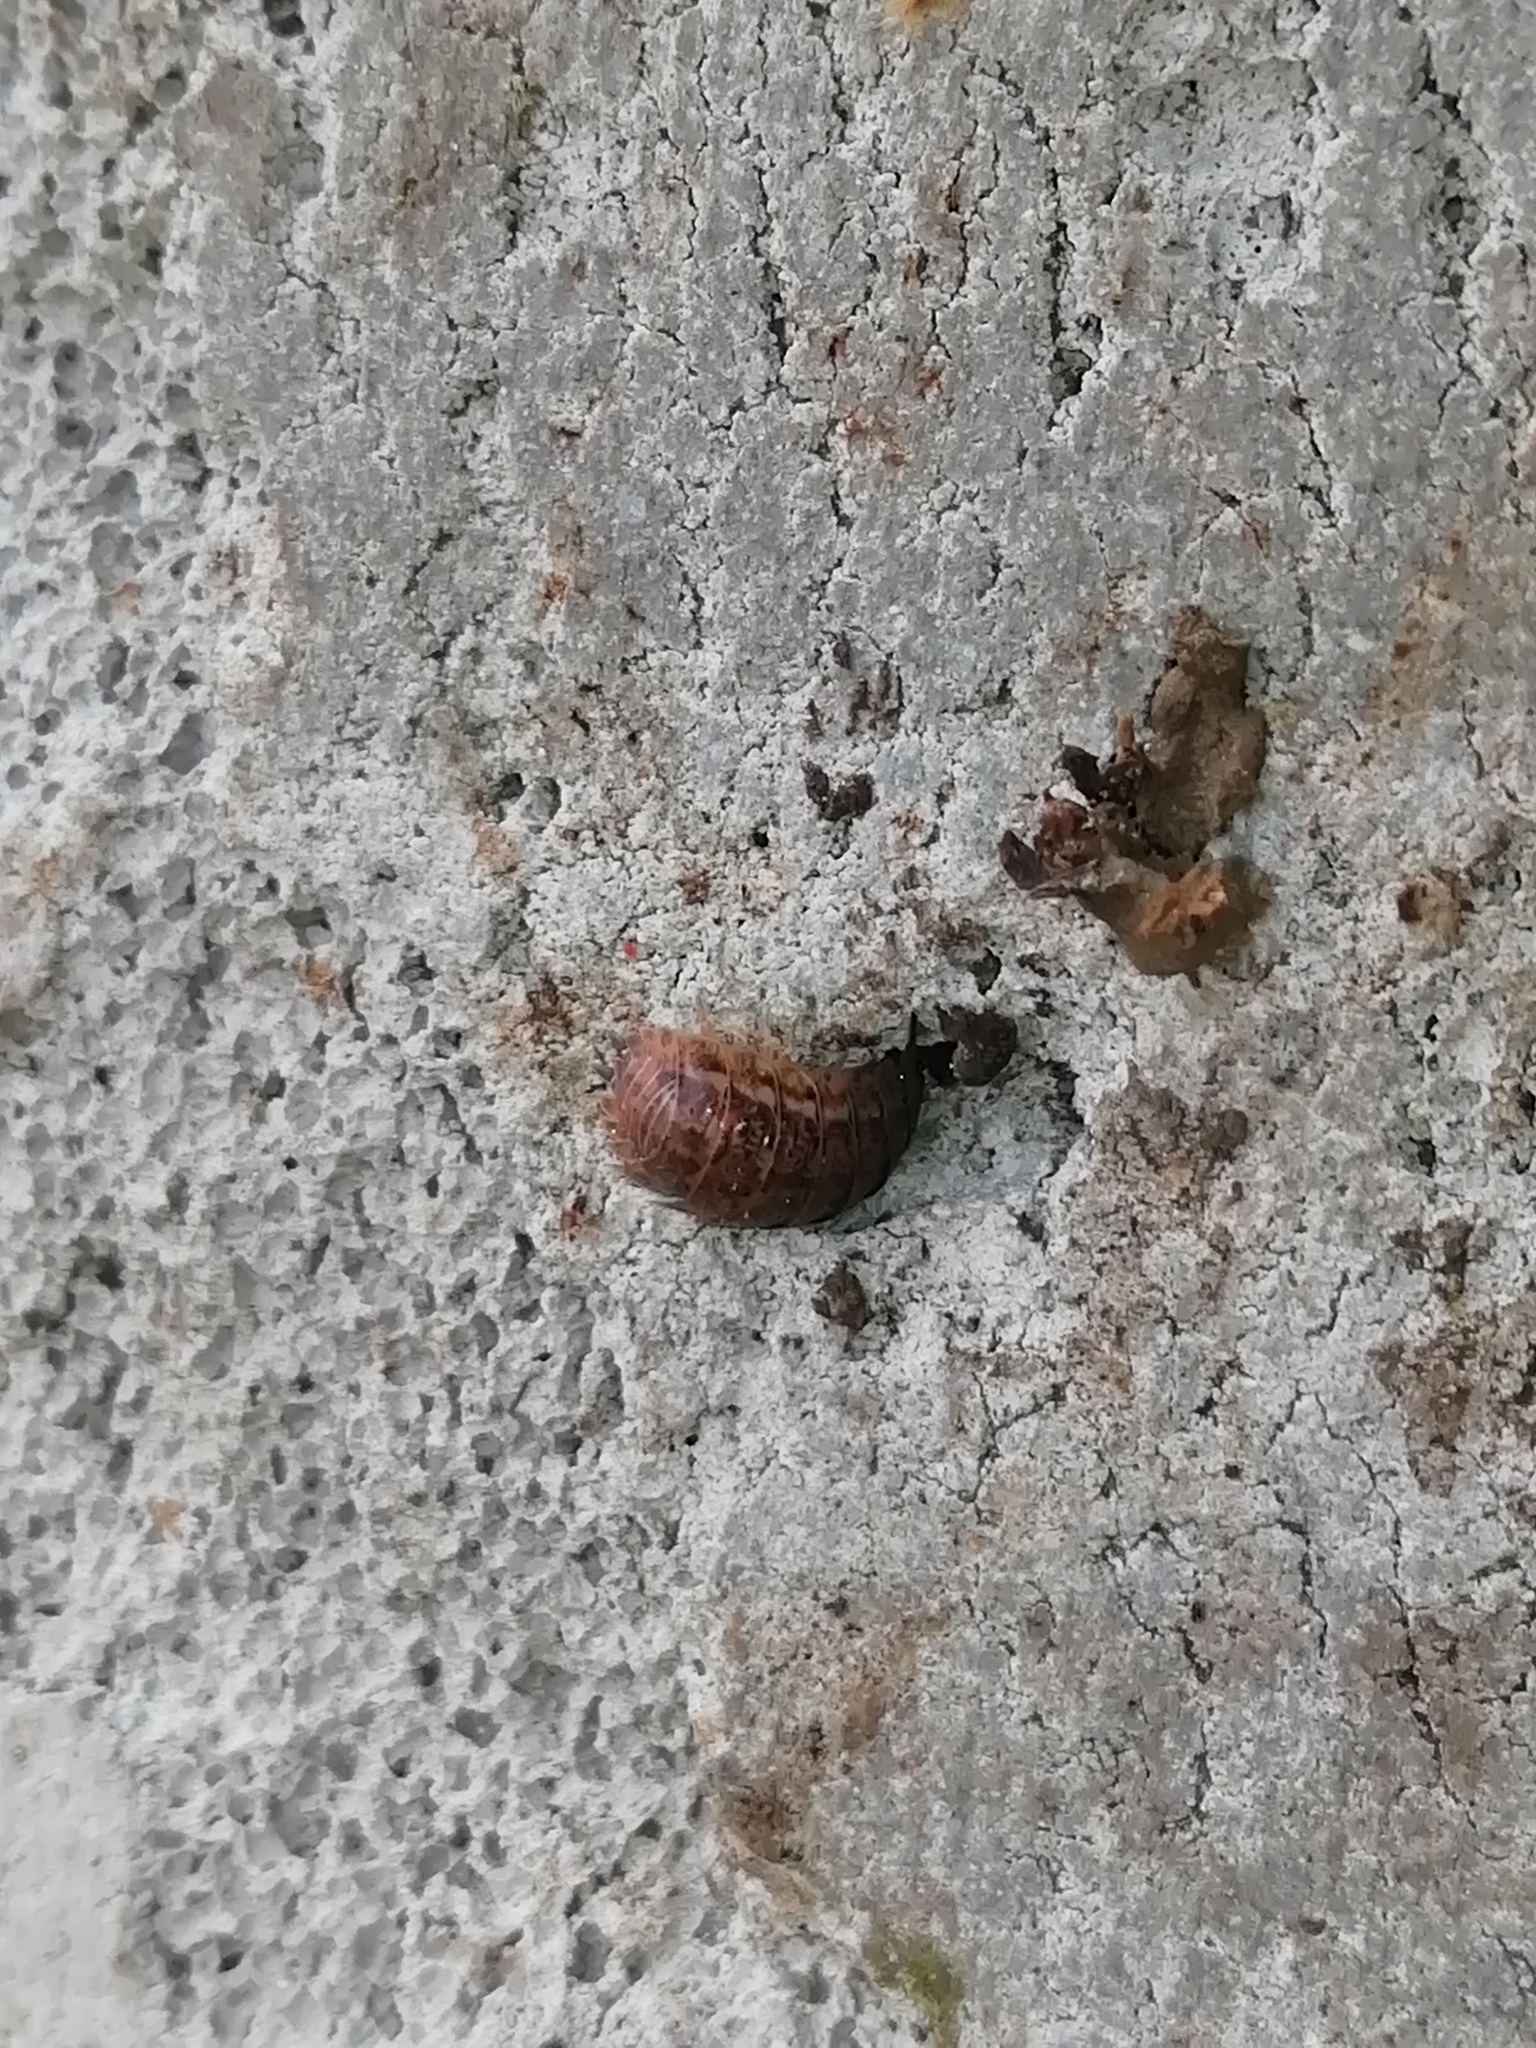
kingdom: Animalia
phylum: Arthropoda
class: Malacostraca
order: Isopoda
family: Trachelipodidae
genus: Trachelipus
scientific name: Trachelipus rathkii
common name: Isopod
